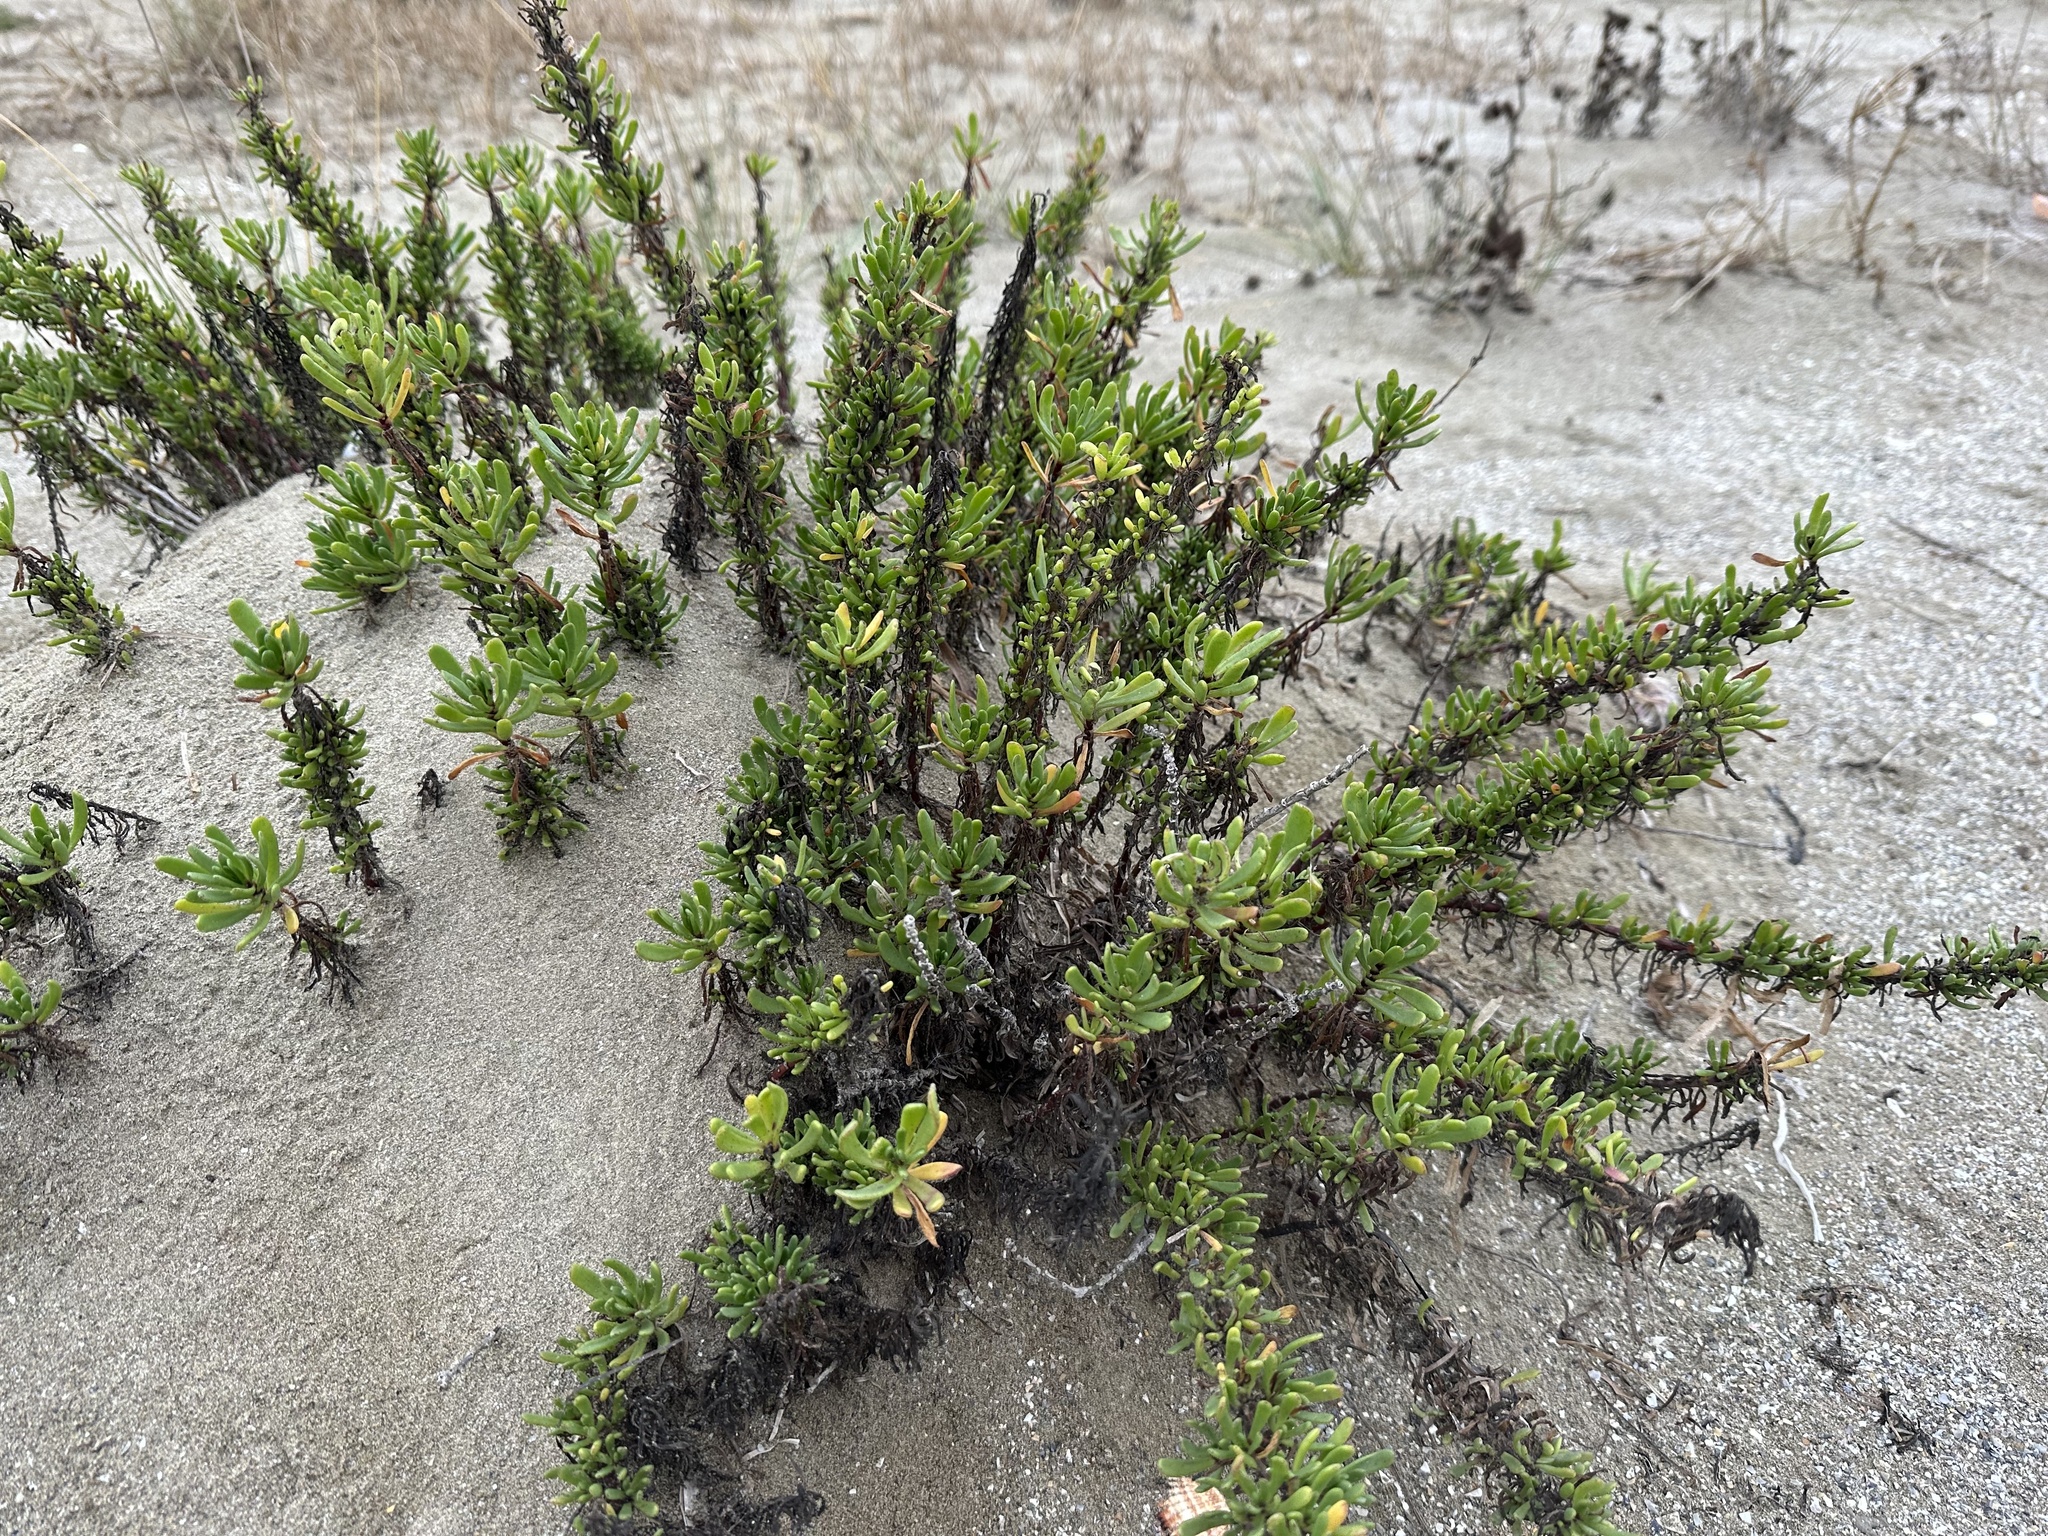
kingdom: Plantae
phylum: Tracheophyta
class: Magnoliopsida
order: Asterales
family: Asteraceae
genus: Limbarda
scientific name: Limbarda crithmoides
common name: Golden samphire
